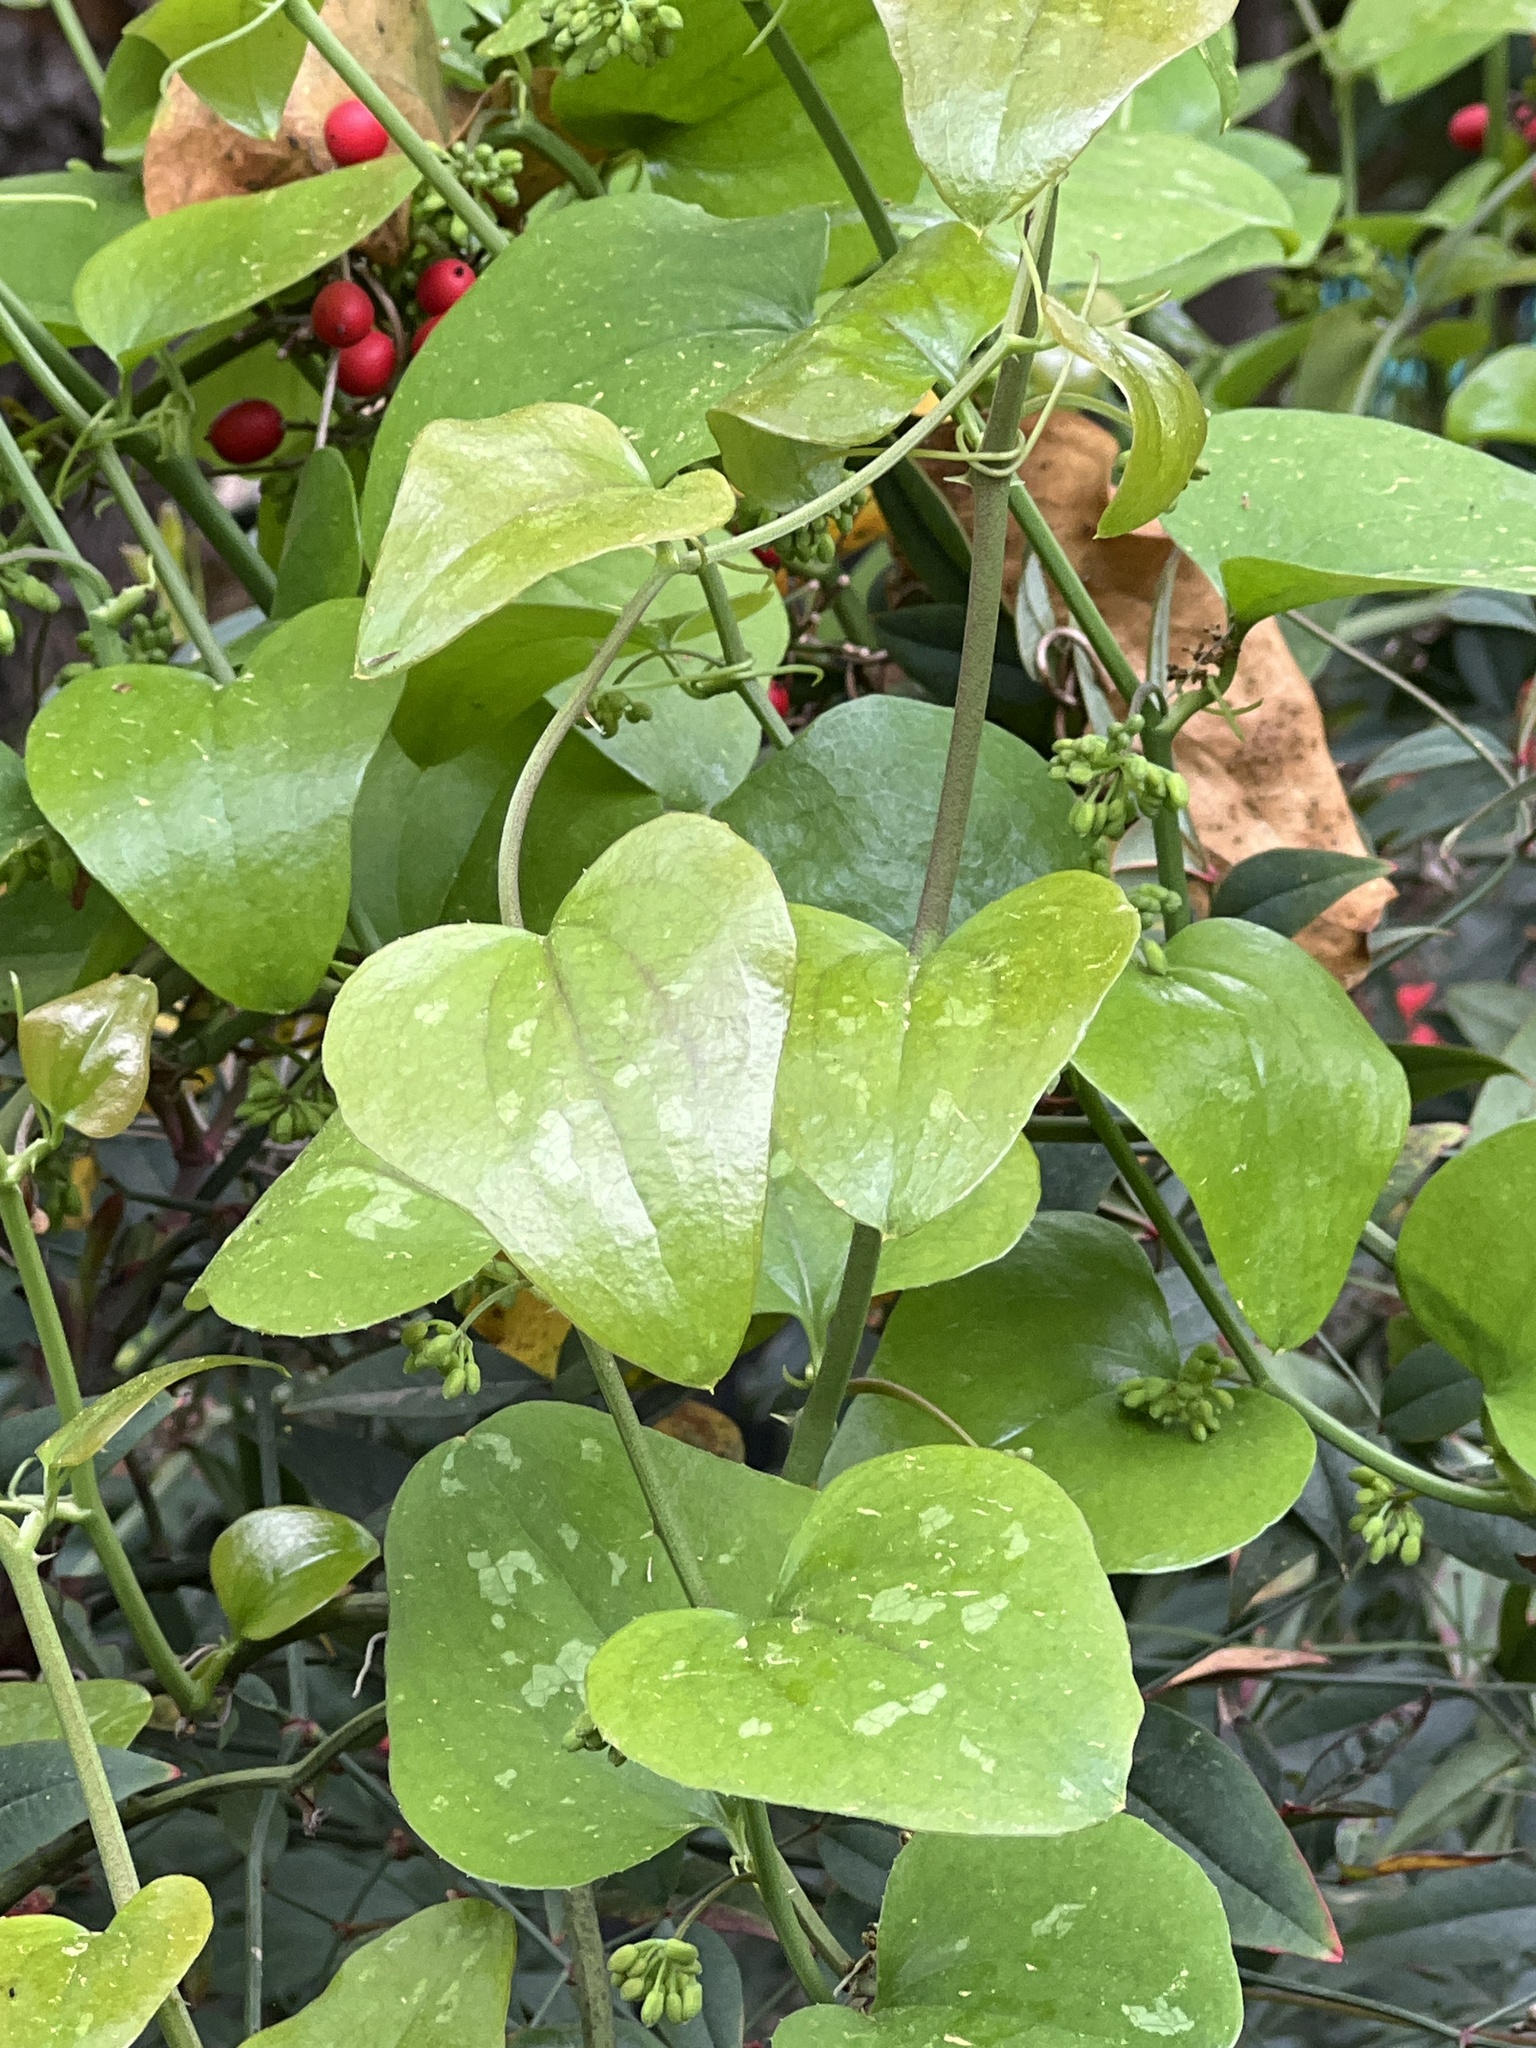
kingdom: Plantae
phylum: Tracheophyta
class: Liliopsida
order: Liliales
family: Smilacaceae
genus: Smilax
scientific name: Smilax bona-nox
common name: Catbrier
